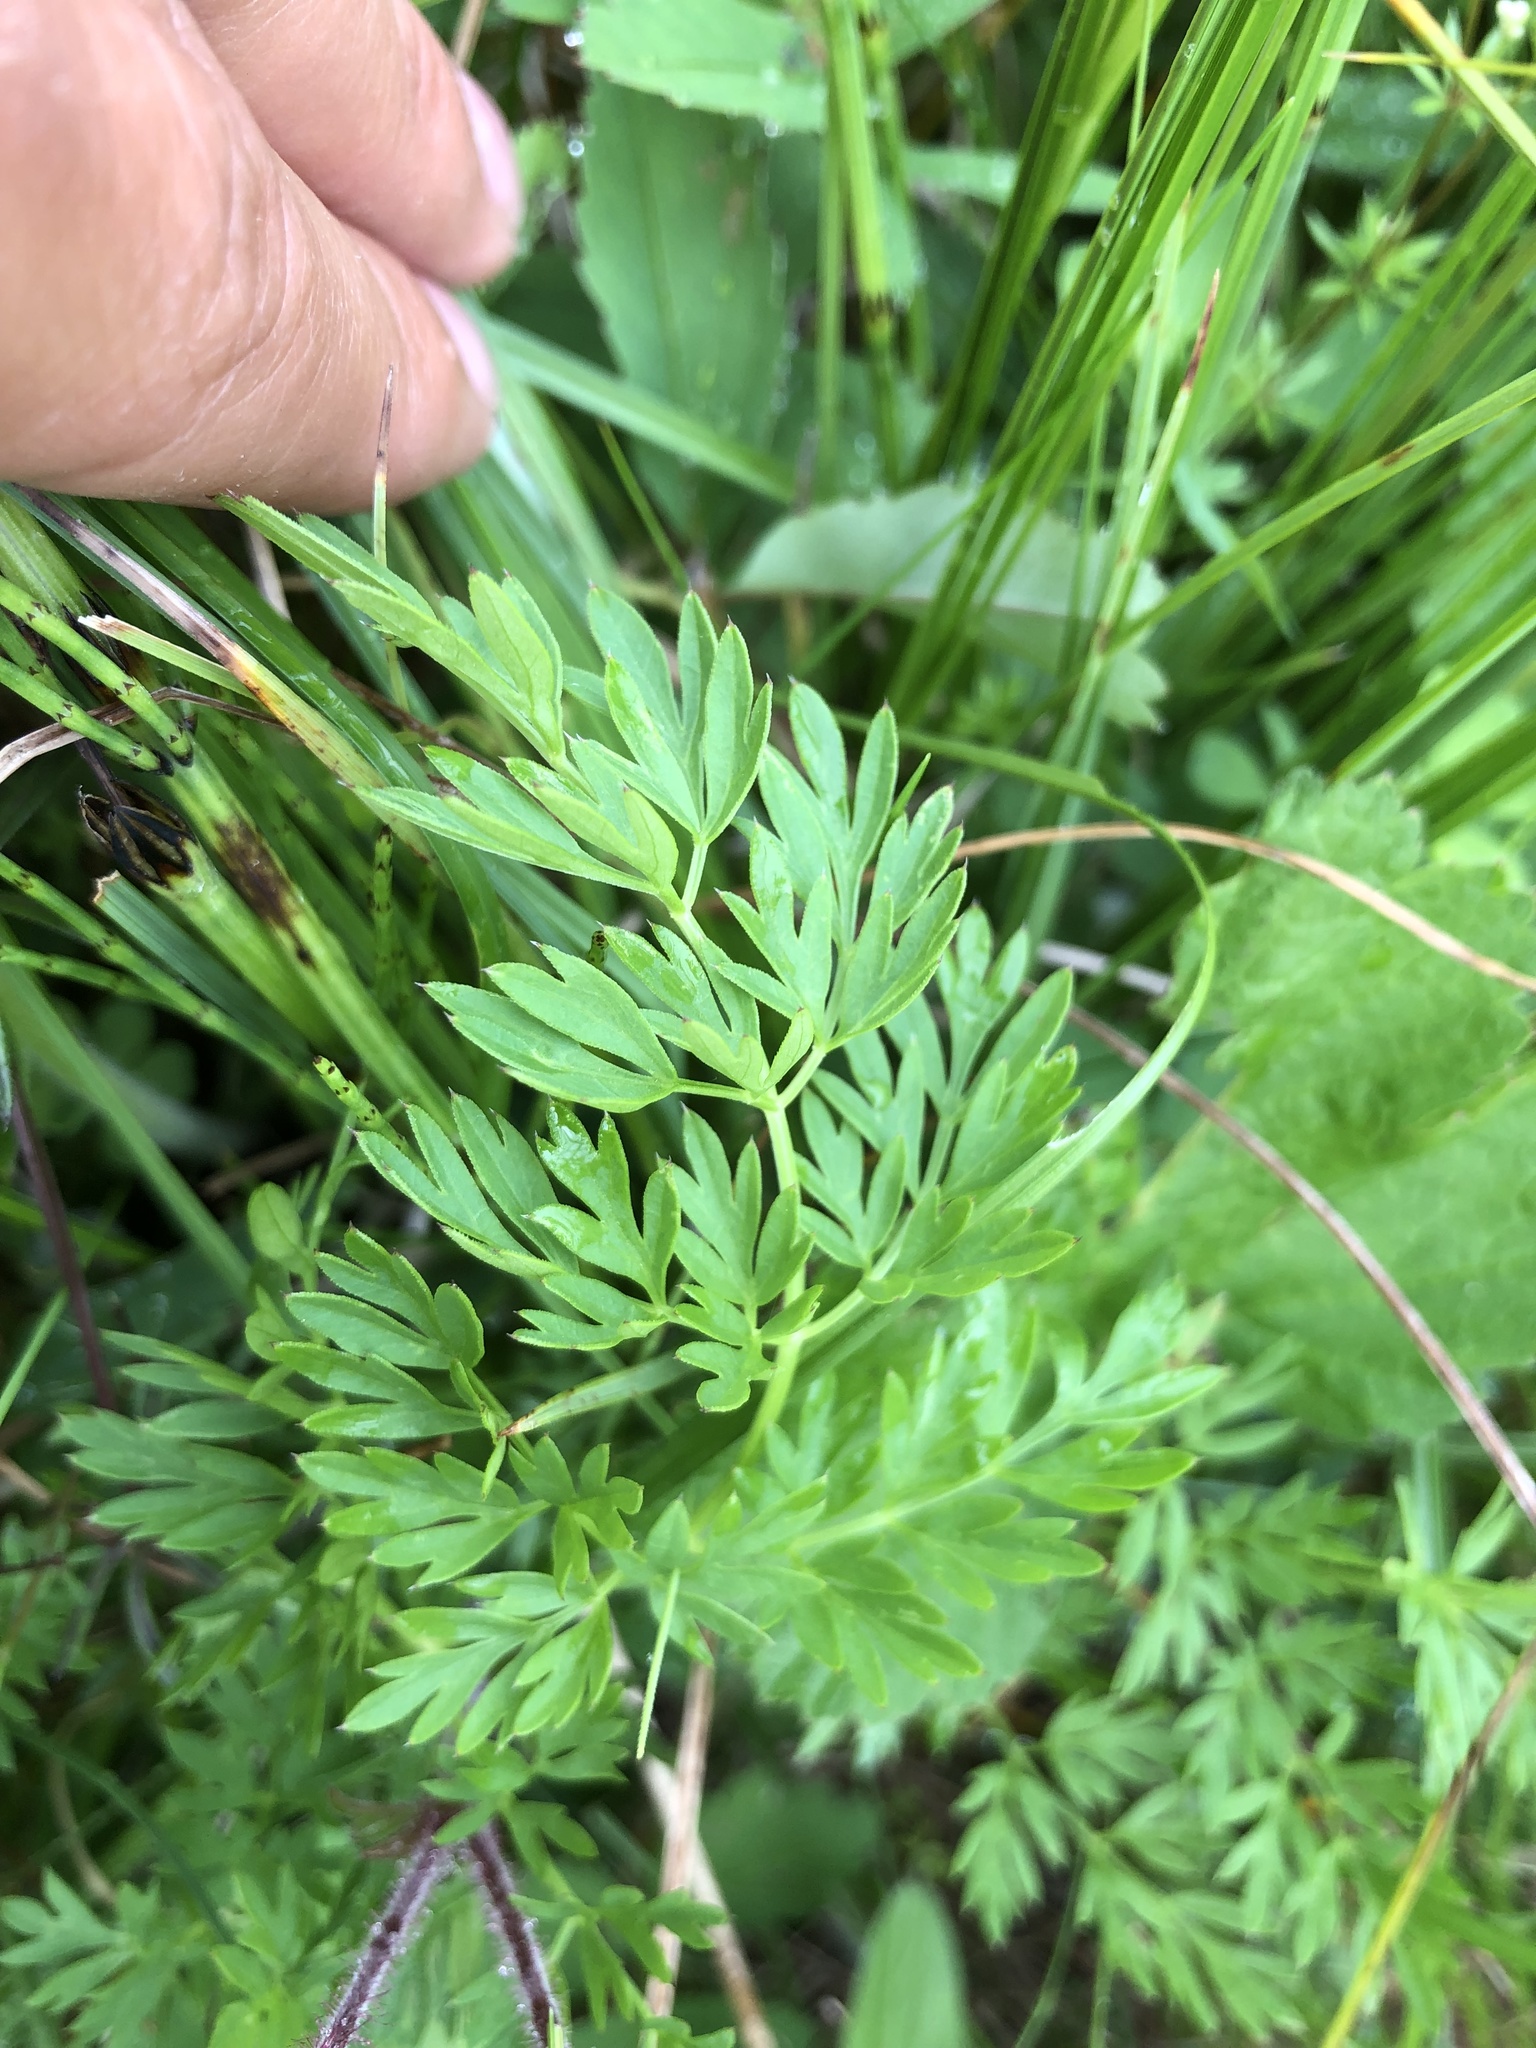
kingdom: Plantae
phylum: Tracheophyta
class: Magnoliopsida
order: Apiales
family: Apiaceae
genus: Selinum
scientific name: Selinum carvifolia
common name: Cambridge milk-parsley
